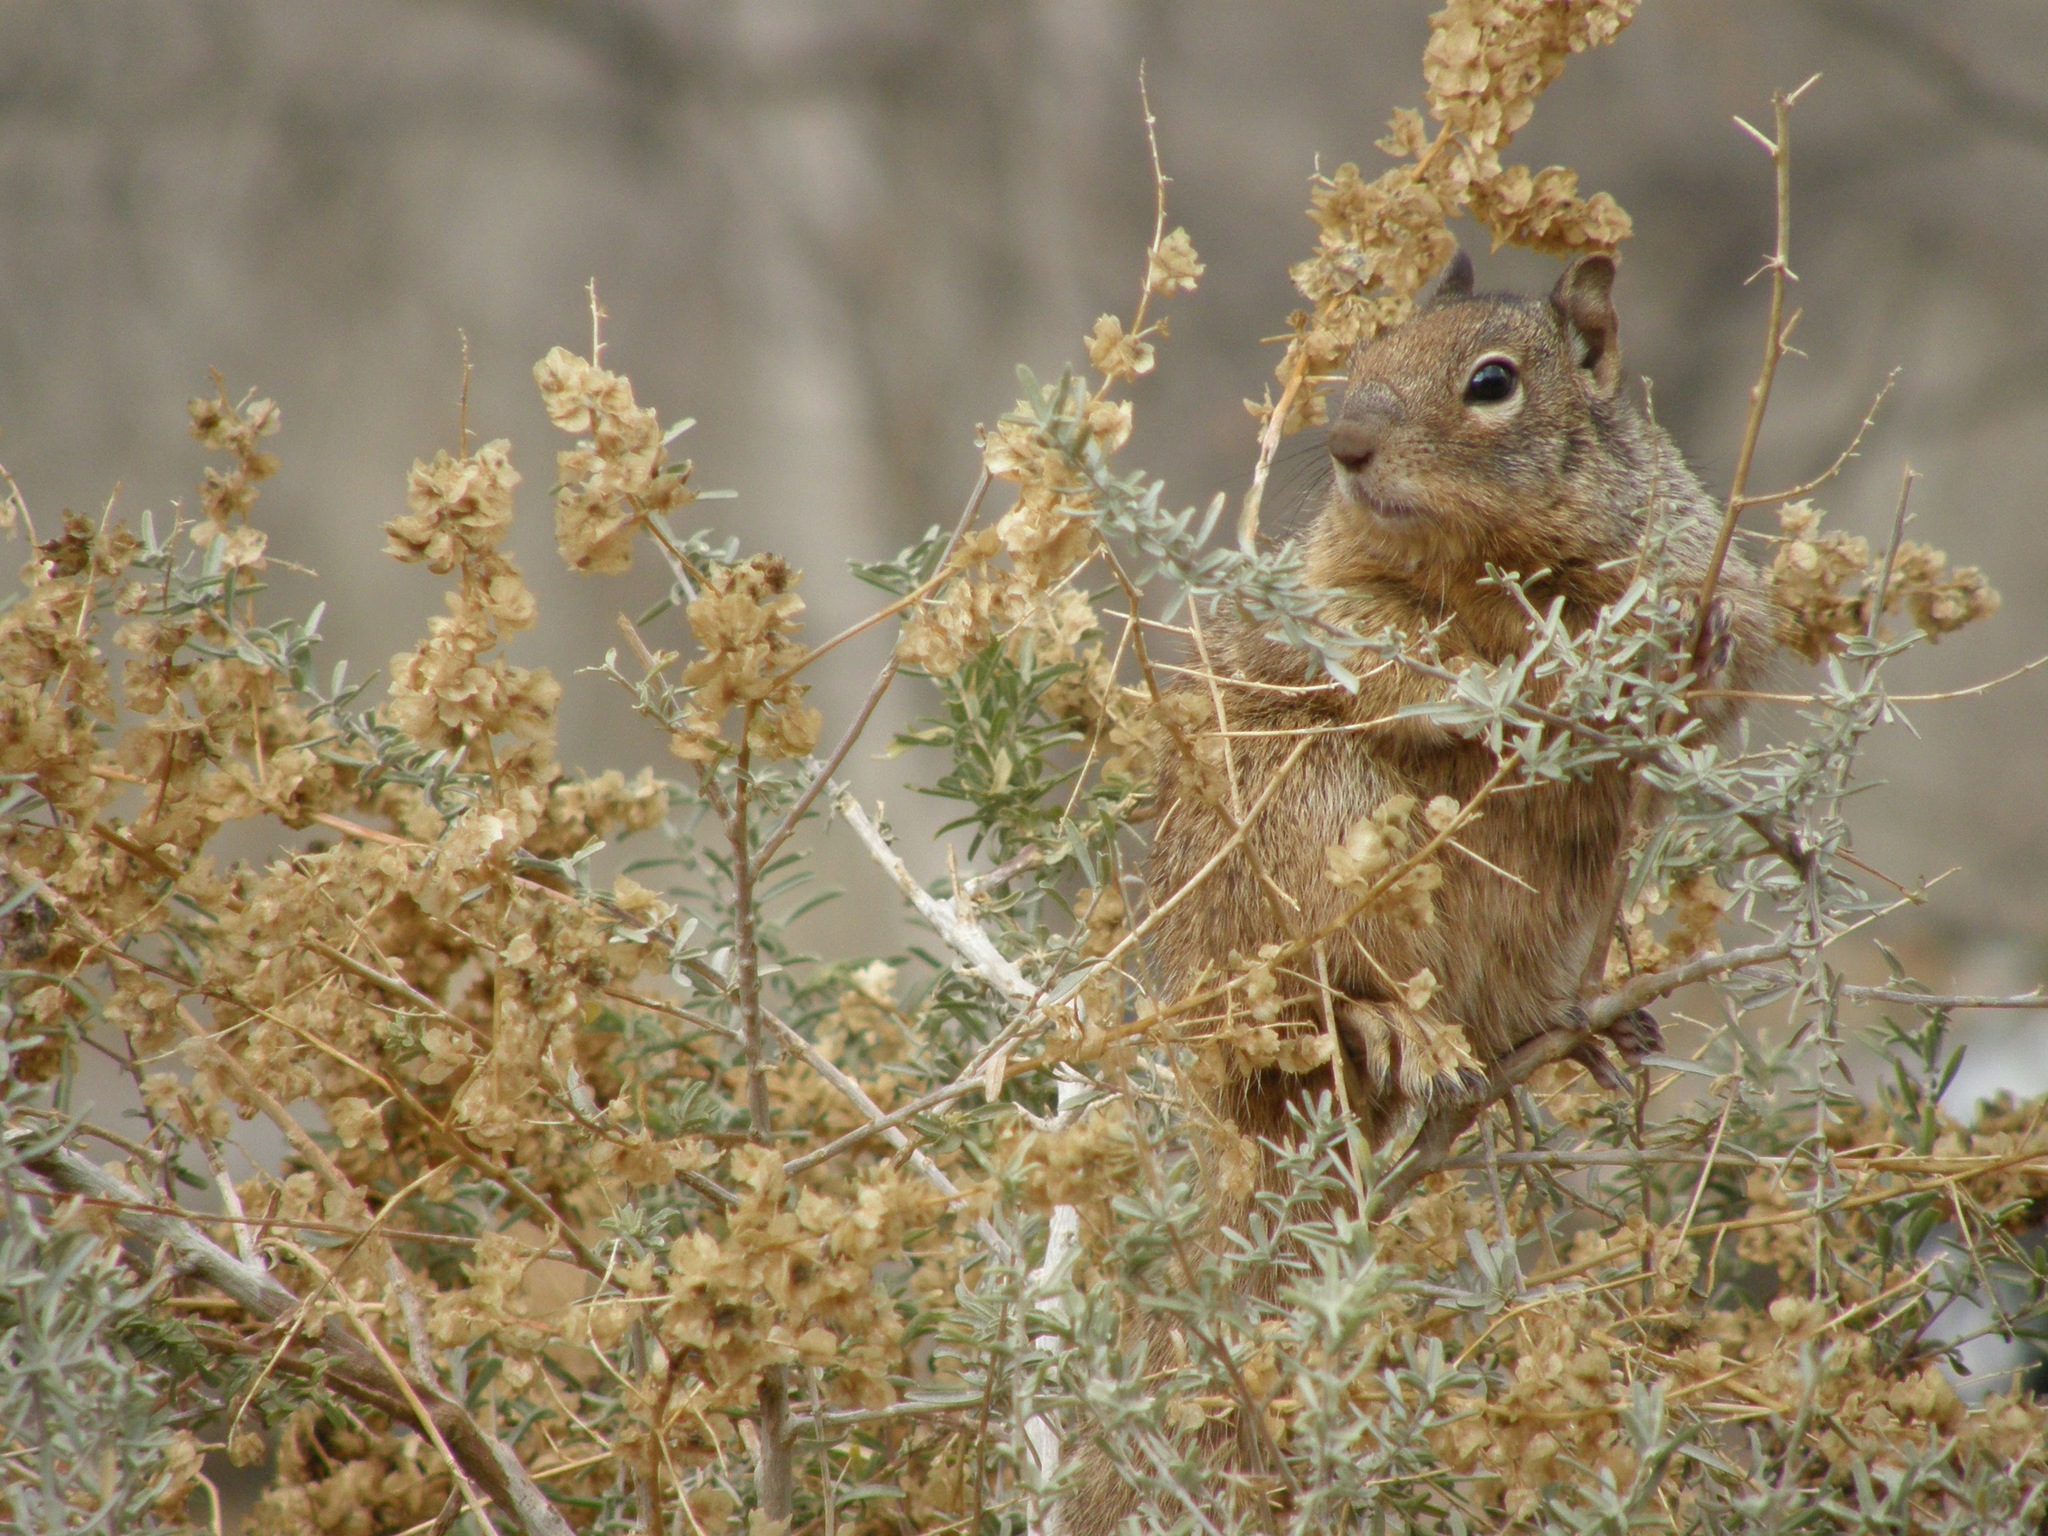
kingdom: Animalia
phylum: Chordata
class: Mammalia
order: Rodentia
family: Sciuridae
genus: Otospermophilus
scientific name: Otospermophilus variegatus
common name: Rock squirrel
